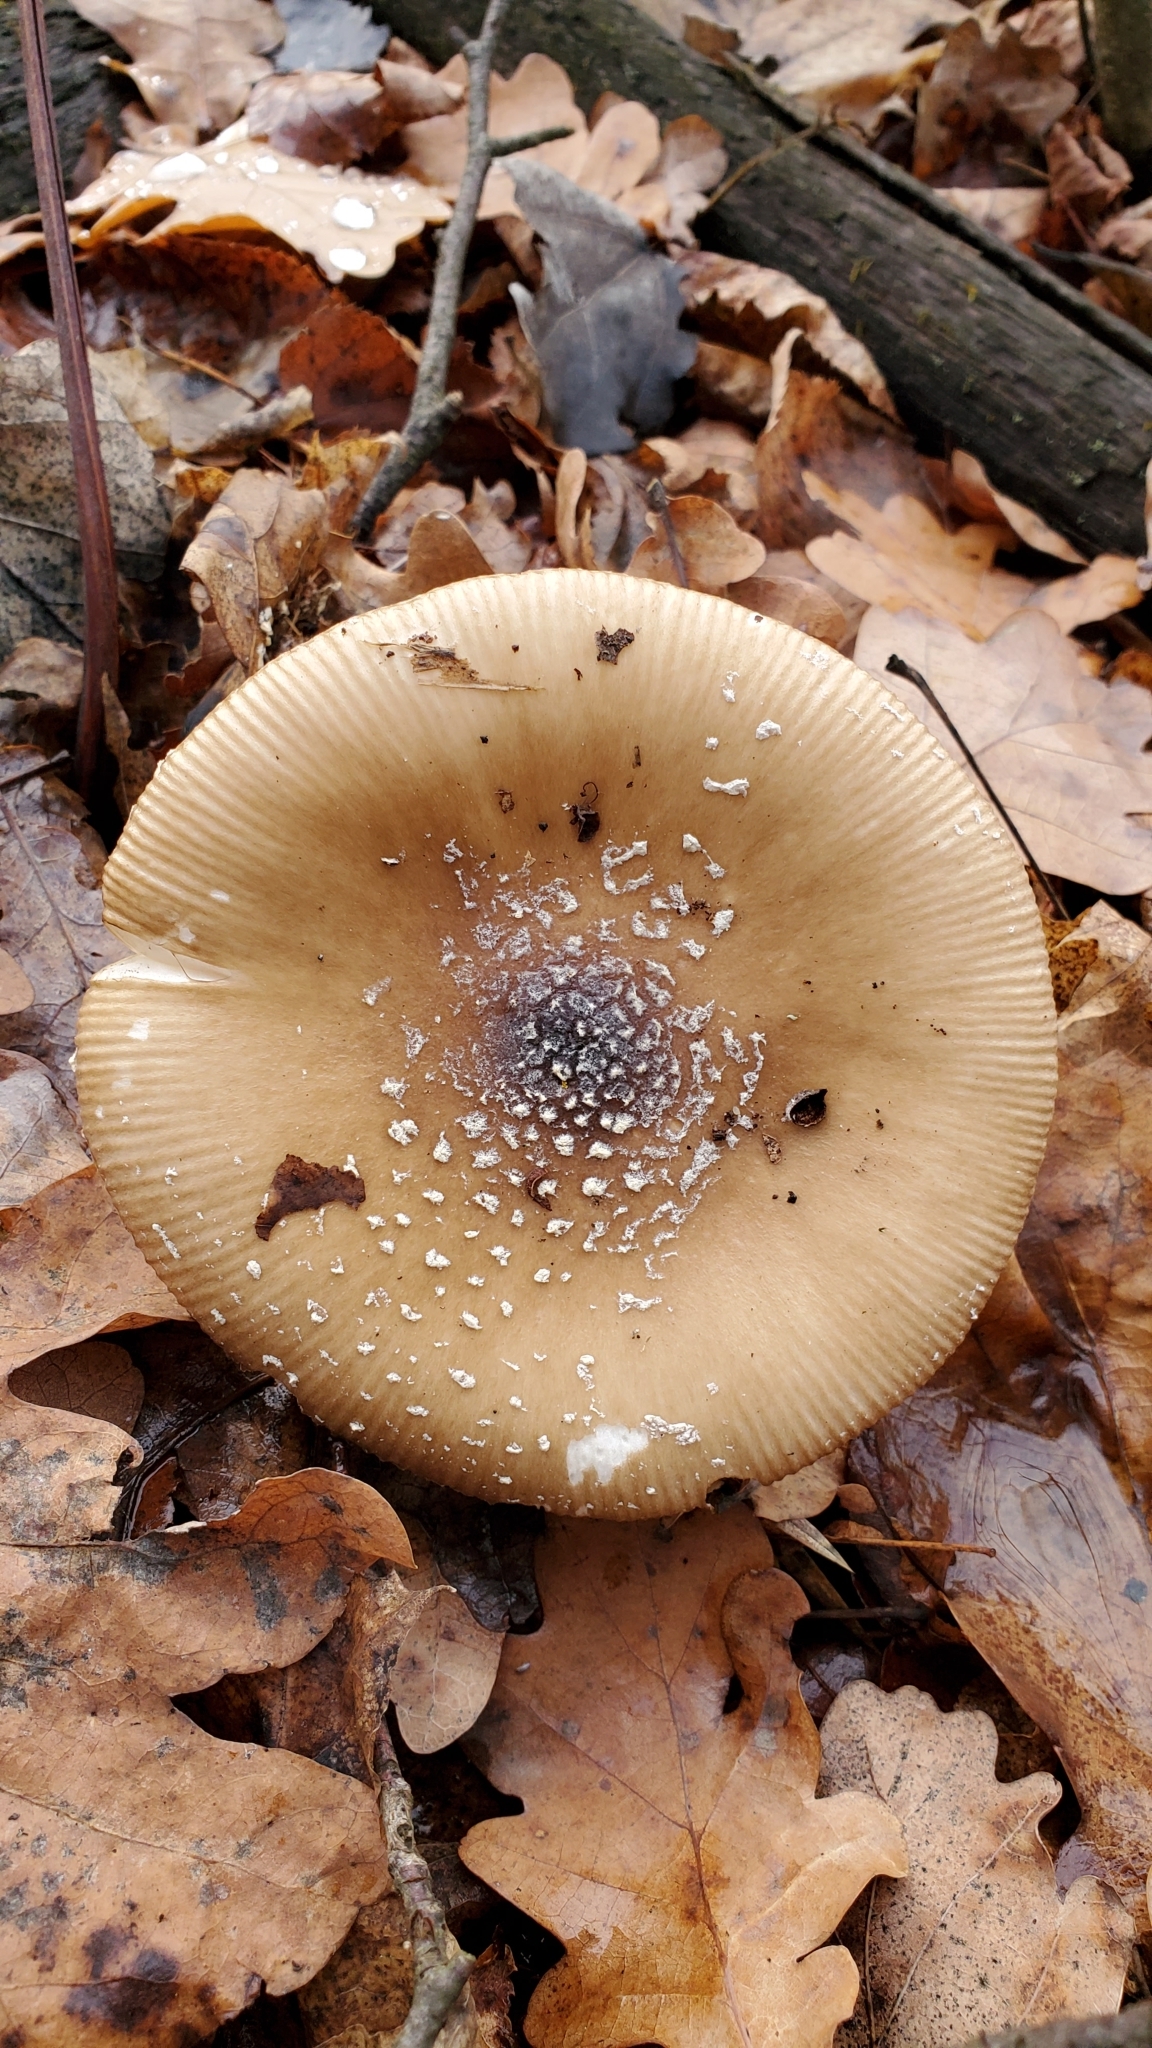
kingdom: Fungi
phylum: Basidiomycota
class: Agaricomycetes
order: Agaricales
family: Amanitaceae
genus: Amanita
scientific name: Amanita pantherina
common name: Panthercap
